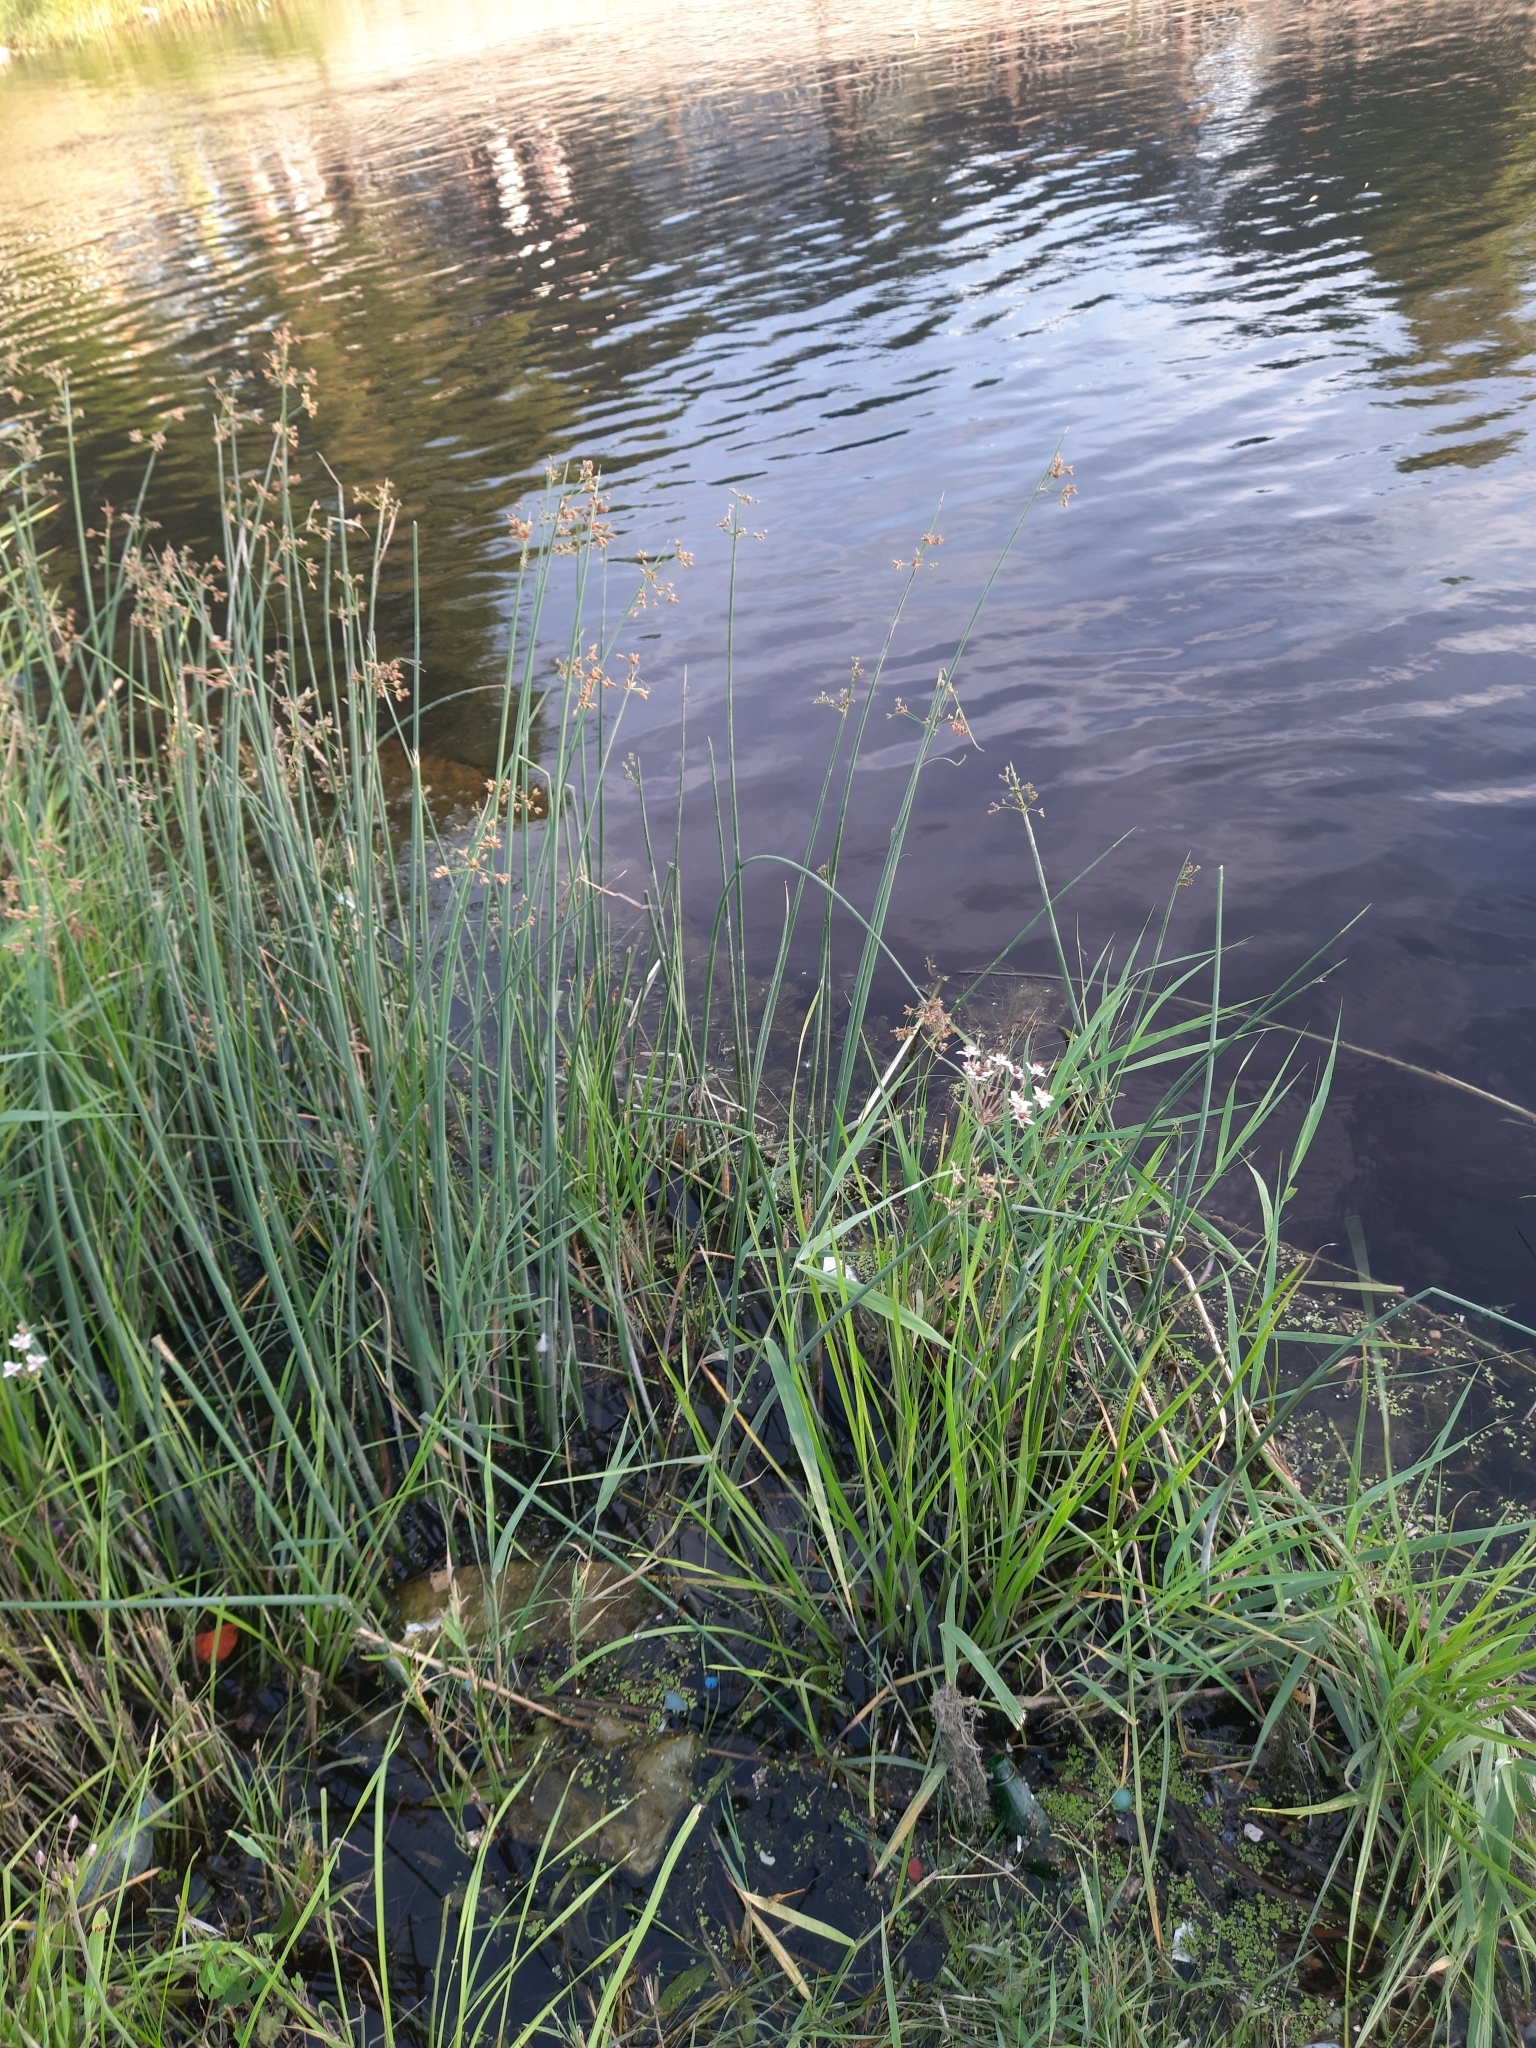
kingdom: Plantae
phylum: Tracheophyta
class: Liliopsida
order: Alismatales
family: Butomaceae
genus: Butomus
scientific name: Butomus umbellatus
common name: Flowering-rush
